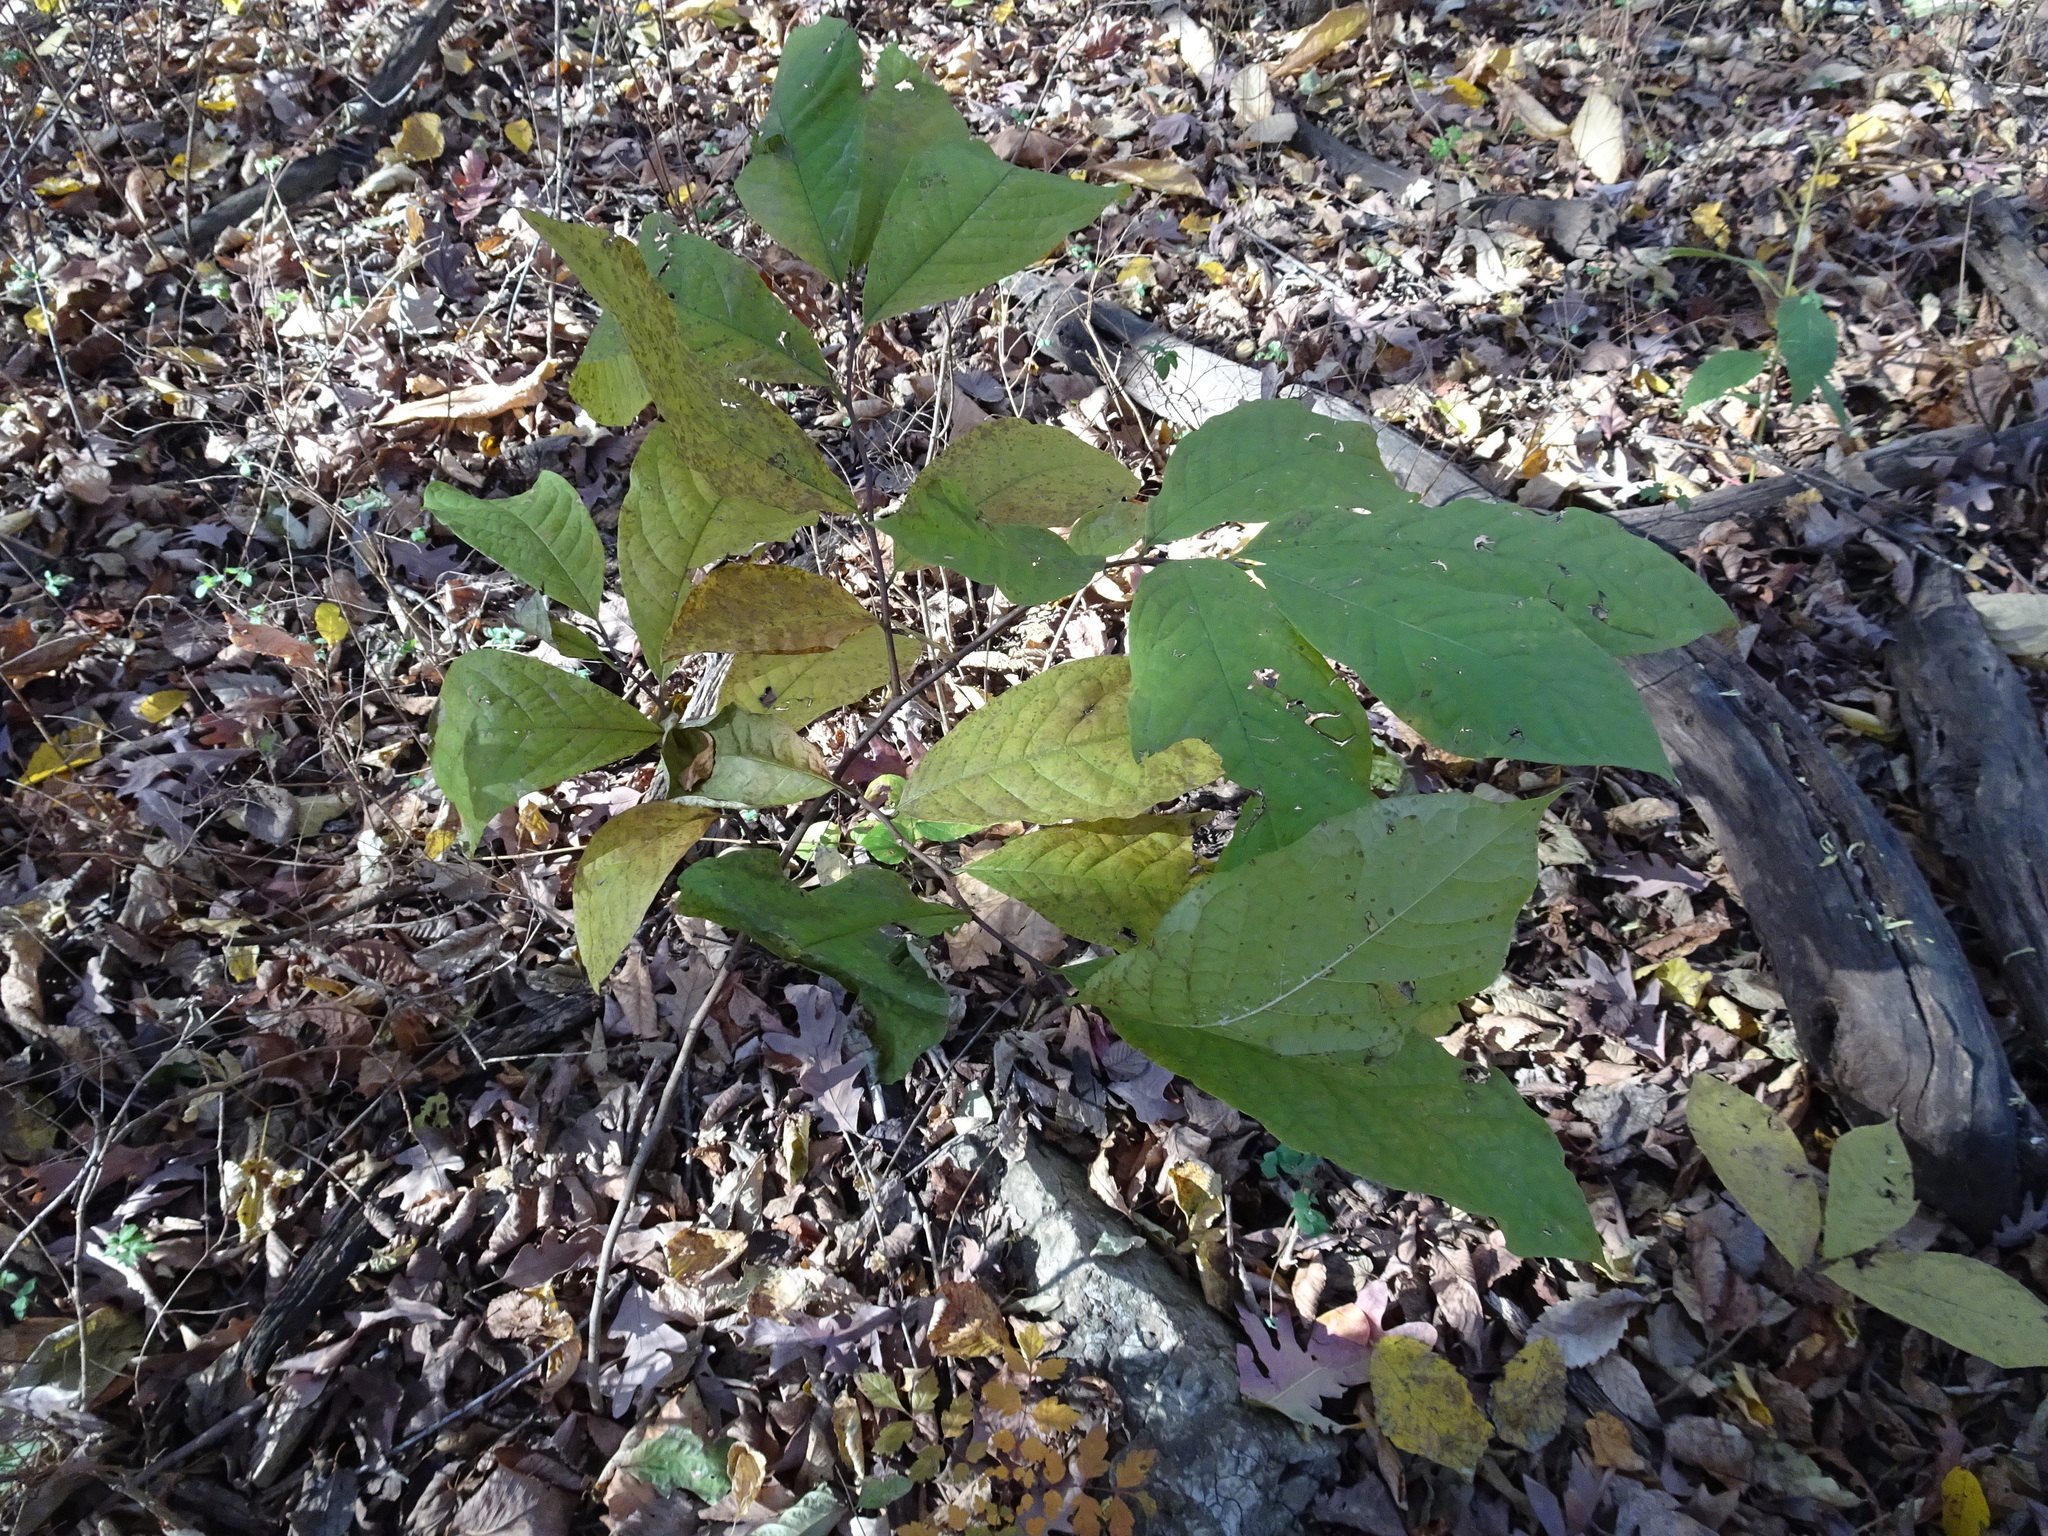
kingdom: Plantae
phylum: Tracheophyta
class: Magnoliopsida
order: Magnoliales
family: Annonaceae
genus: Asimina
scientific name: Asimina triloba
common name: Dog-banana
